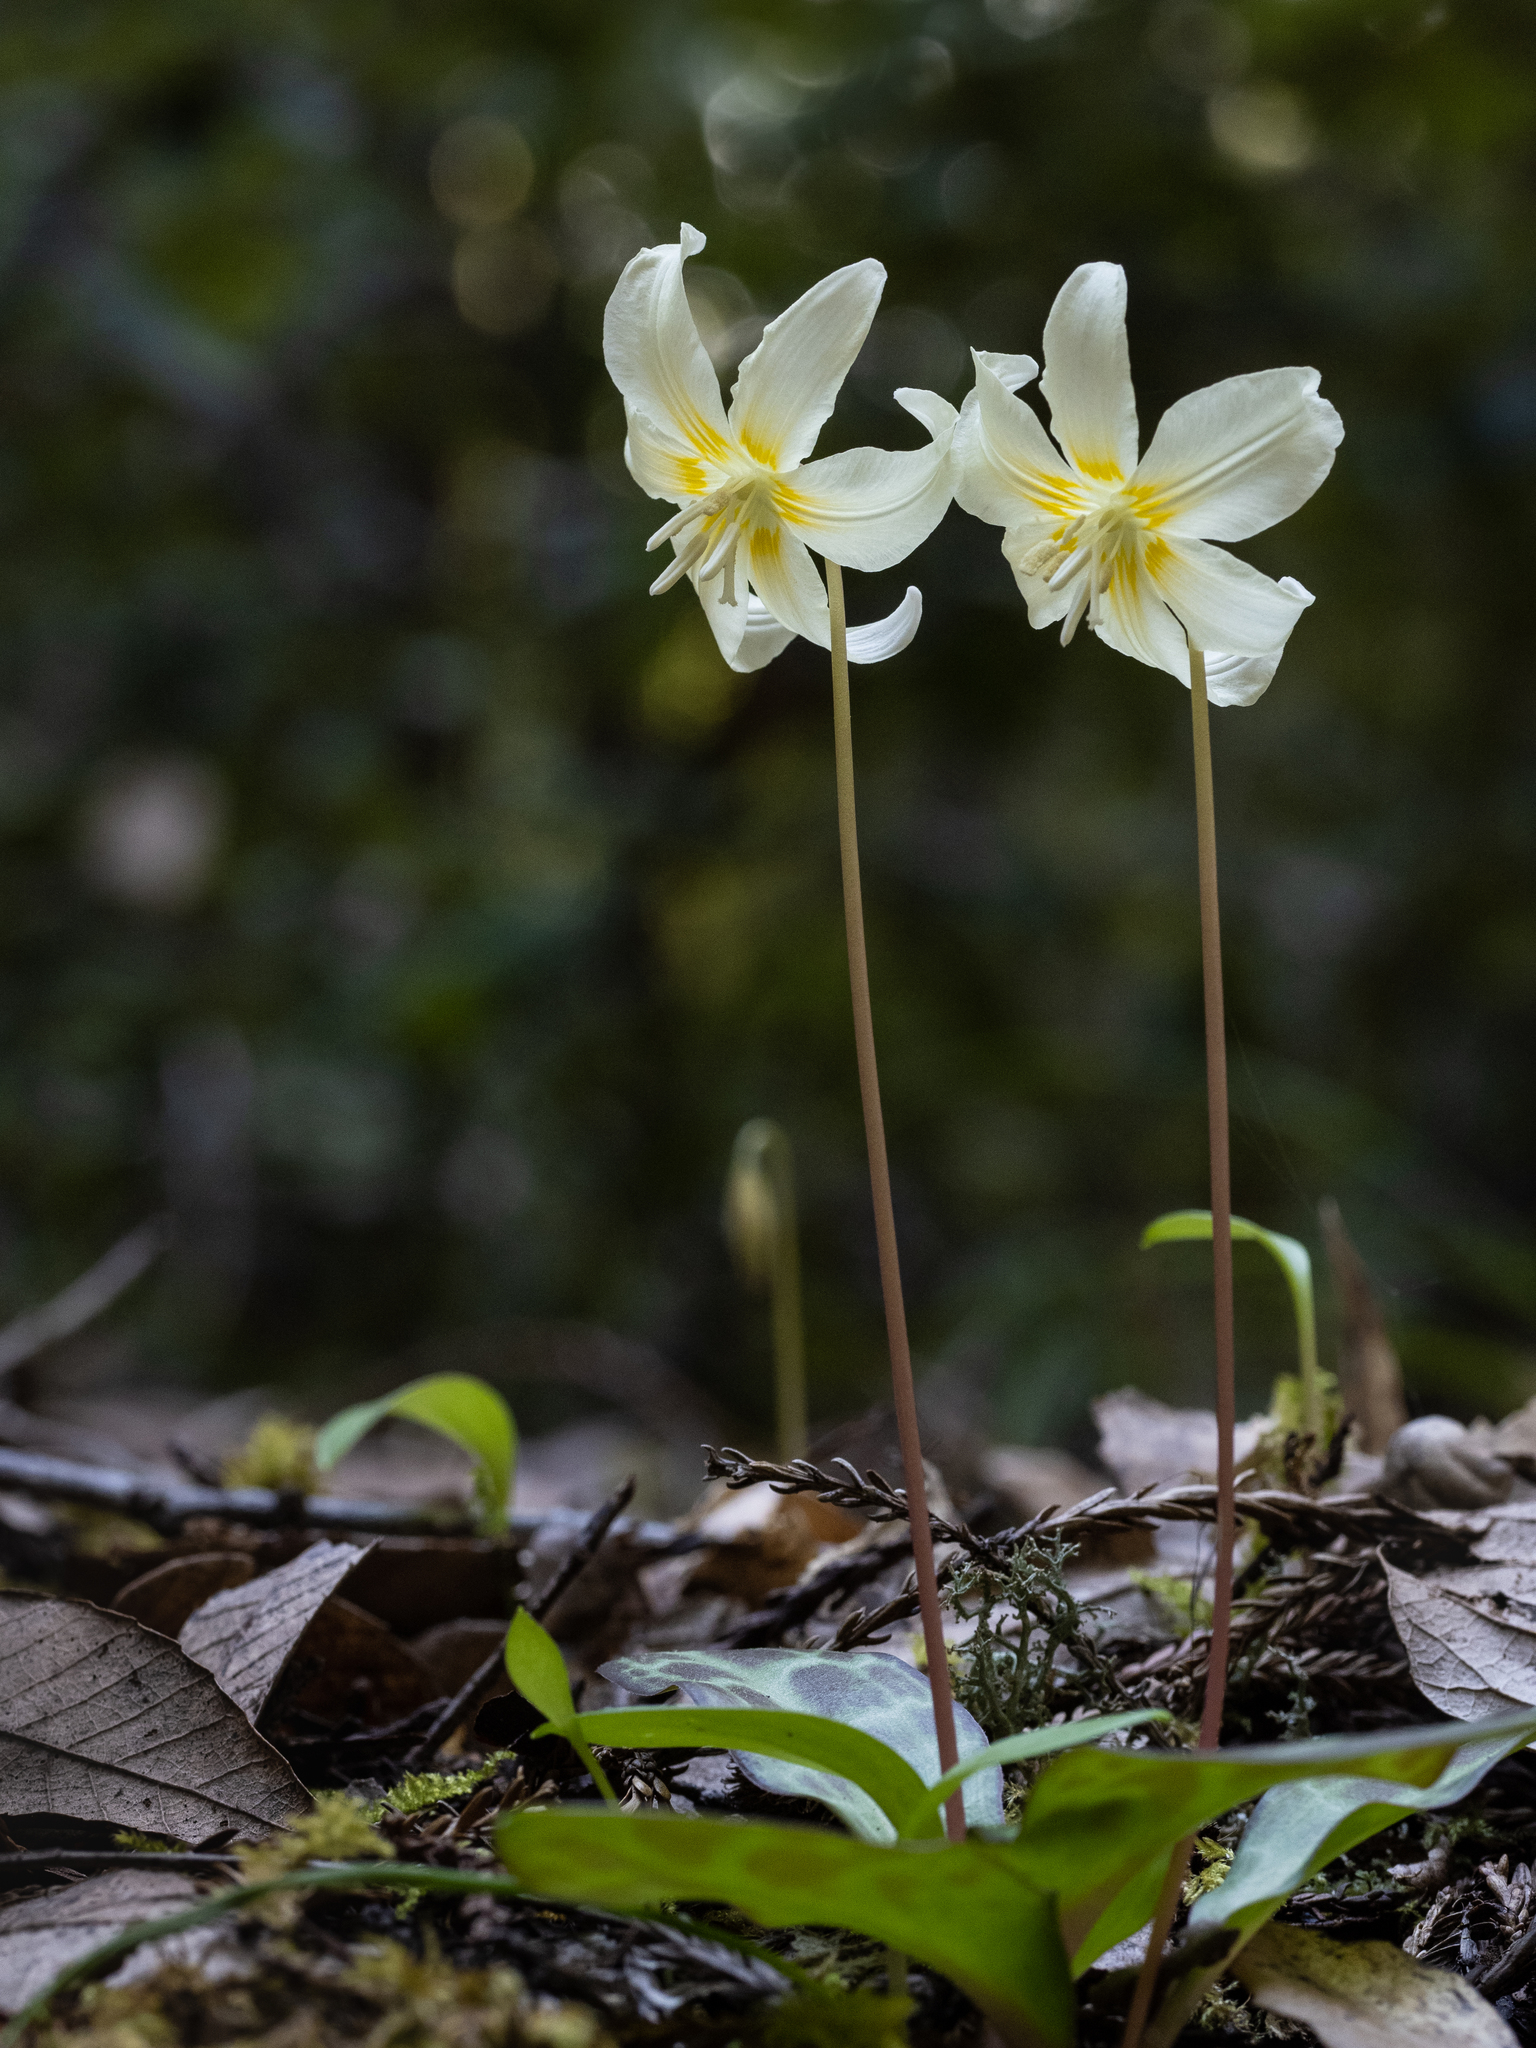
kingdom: Plantae
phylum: Tracheophyta
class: Liliopsida
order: Liliales
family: Liliaceae
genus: Erythronium
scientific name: Erythronium californicum
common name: Fawn-lily
